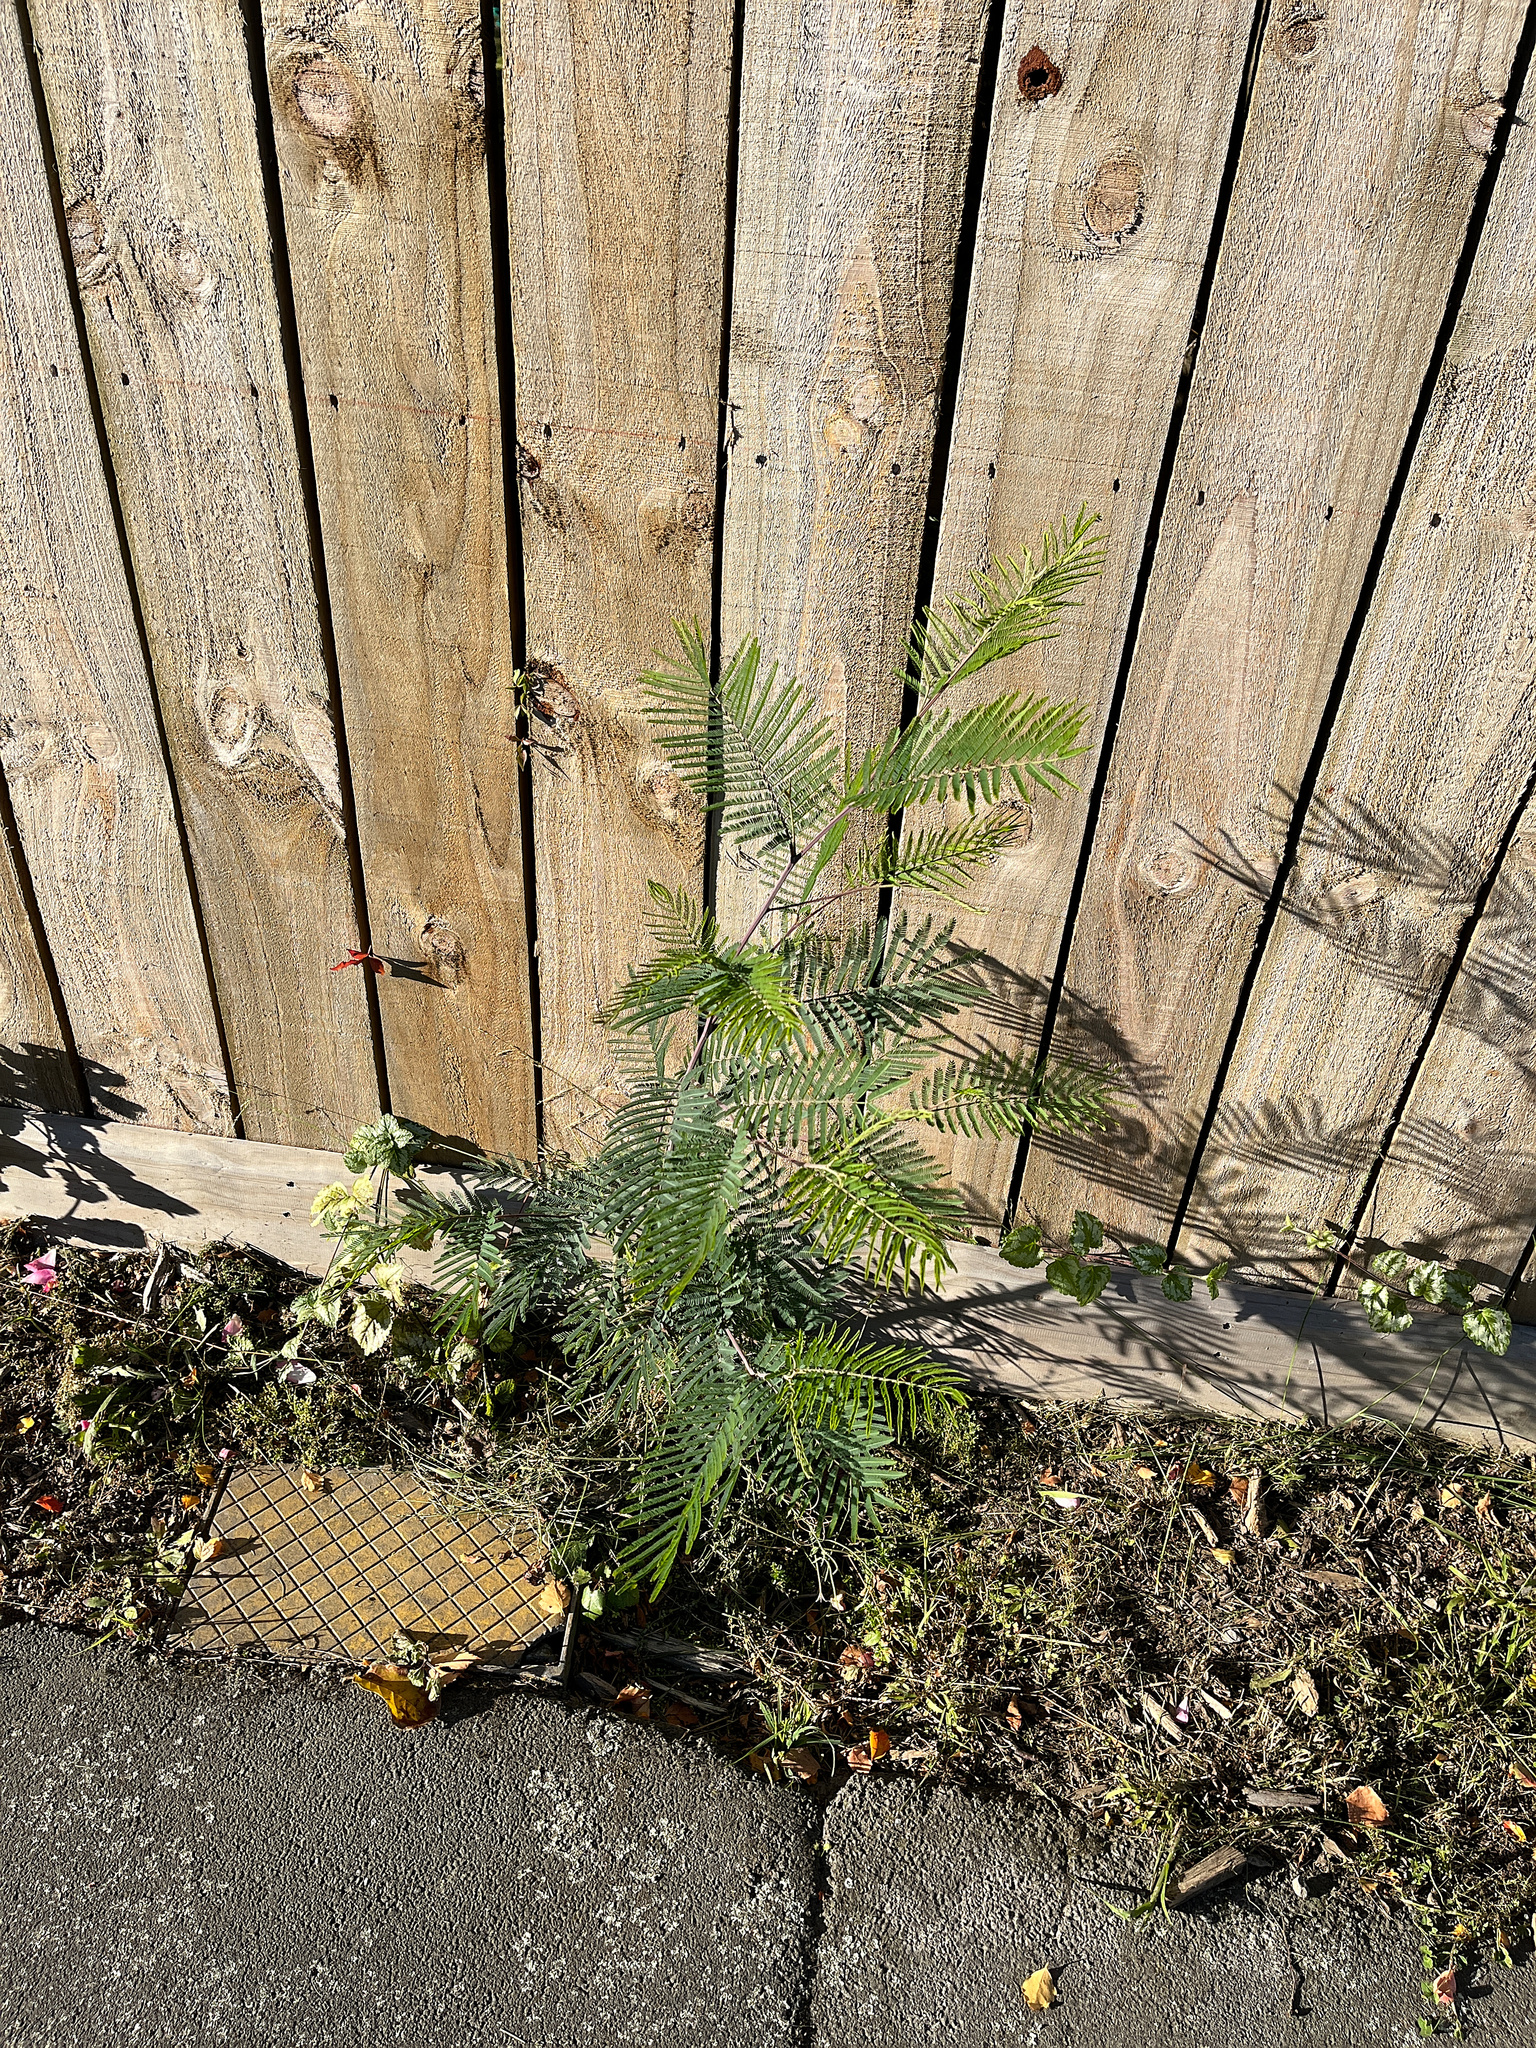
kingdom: Plantae
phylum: Tracheophyta
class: Magnoliopsida
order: Fabales
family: Fabaceae
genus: Paraserianthes
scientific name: Paraserianthes lophantha
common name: Plume albizia
